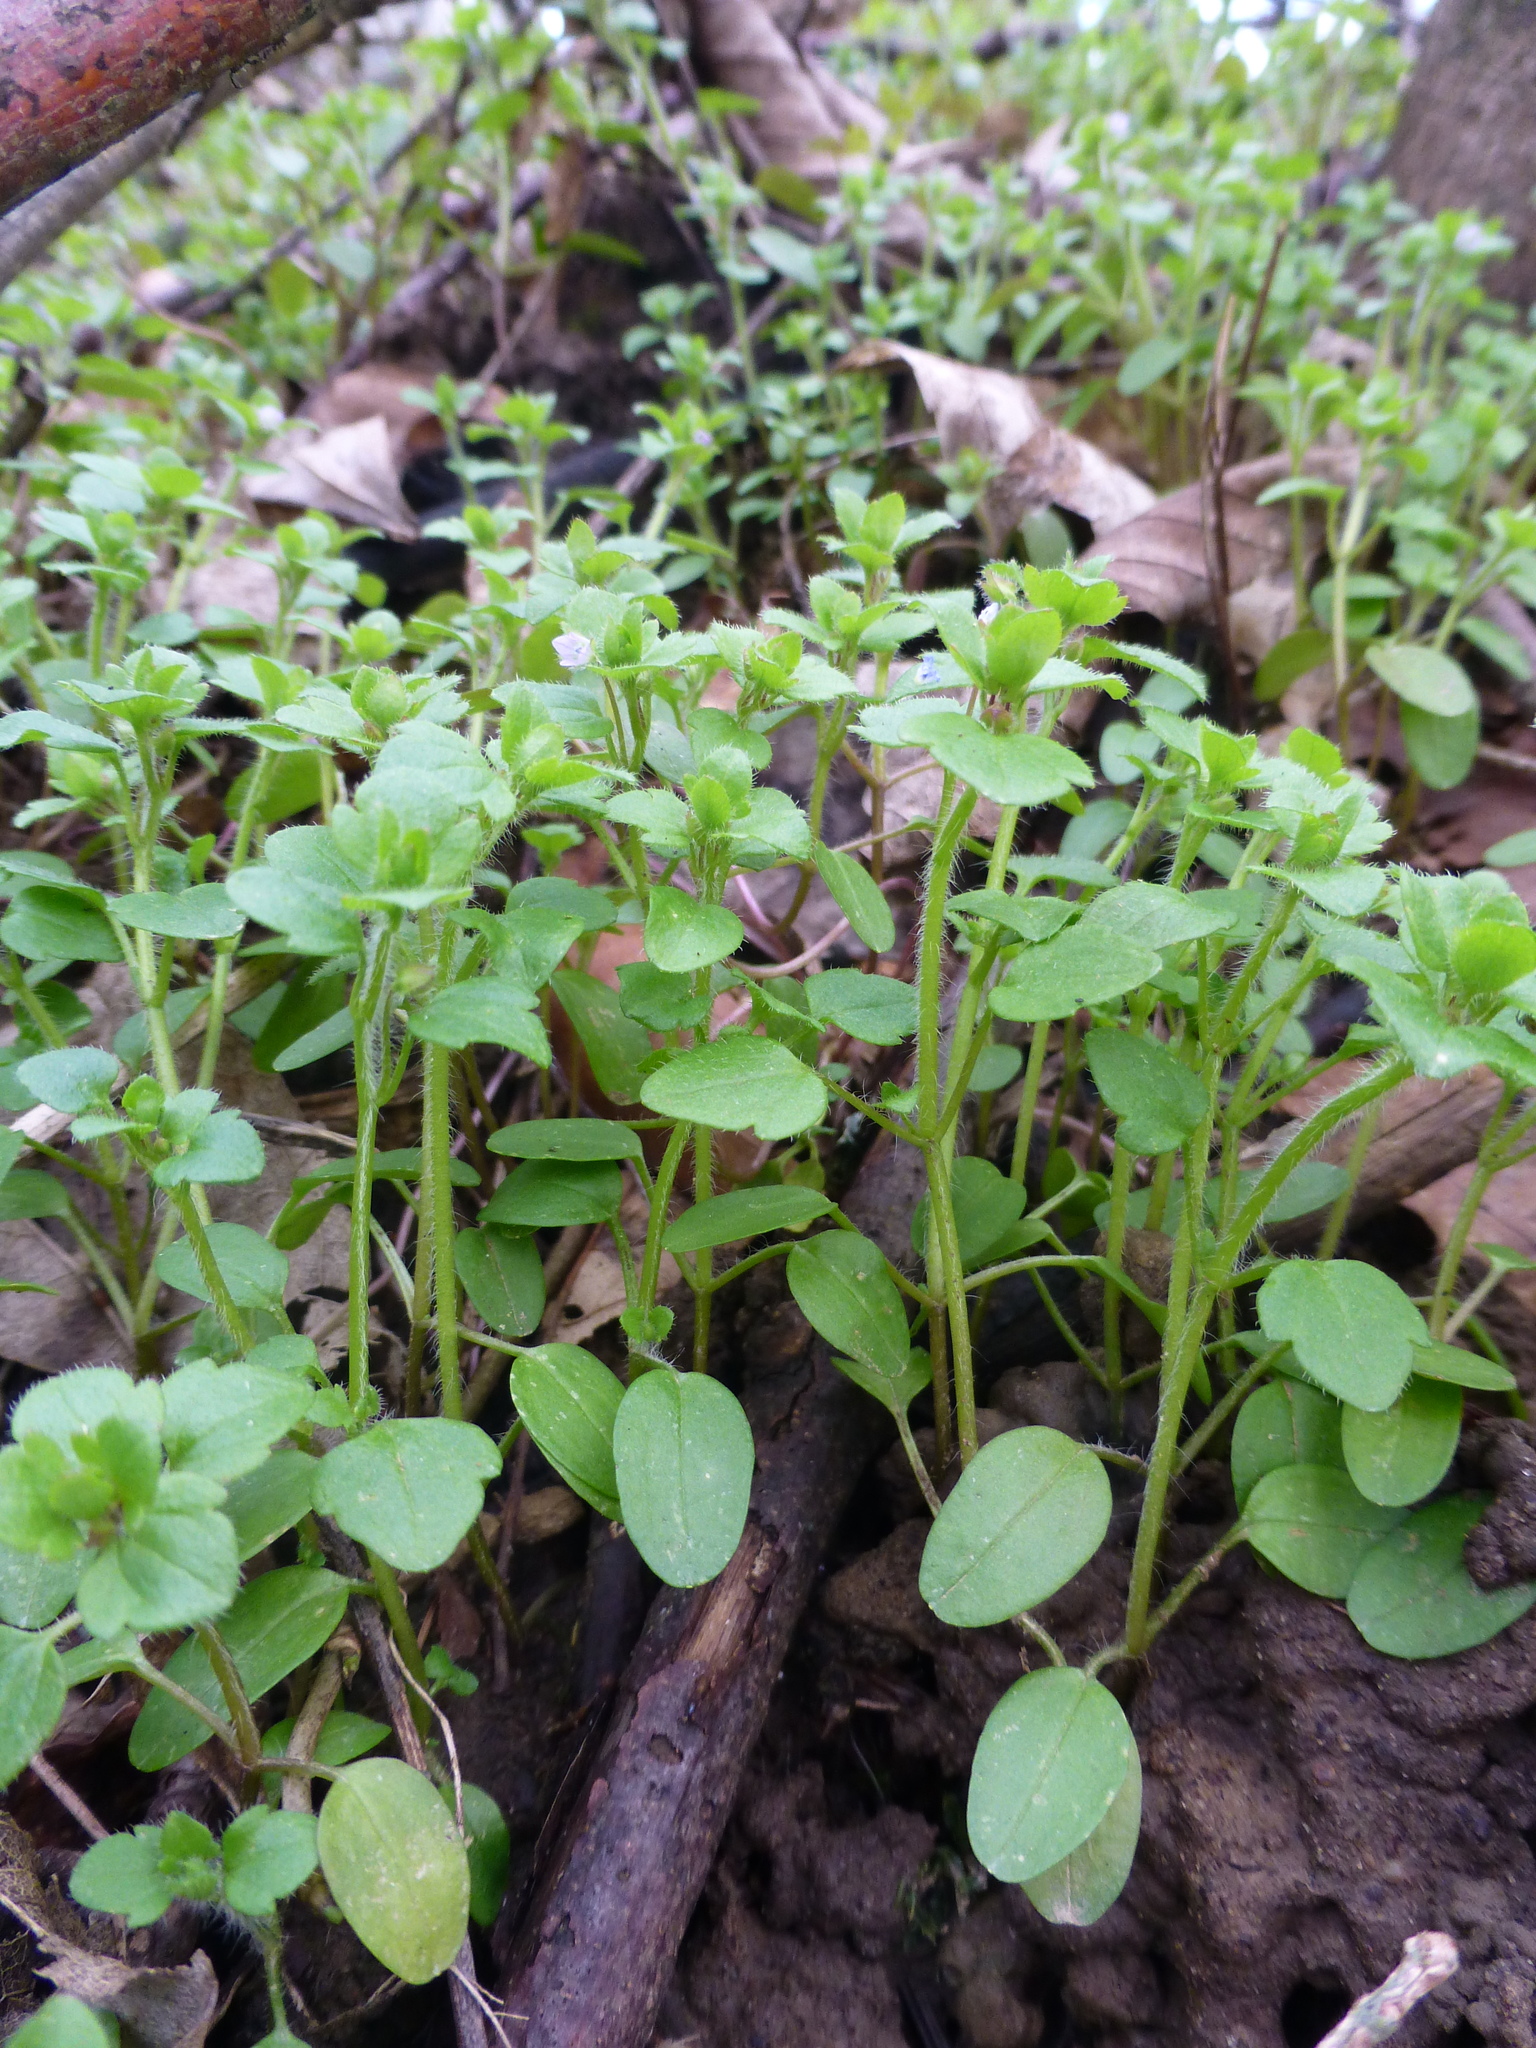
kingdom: Plantae
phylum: Tracheophyta
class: Magnoliopsida
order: Lamiales
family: Plantaginaceae
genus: Veronica
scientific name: Veronica sublobata
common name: False ivy-leaved speedwell
